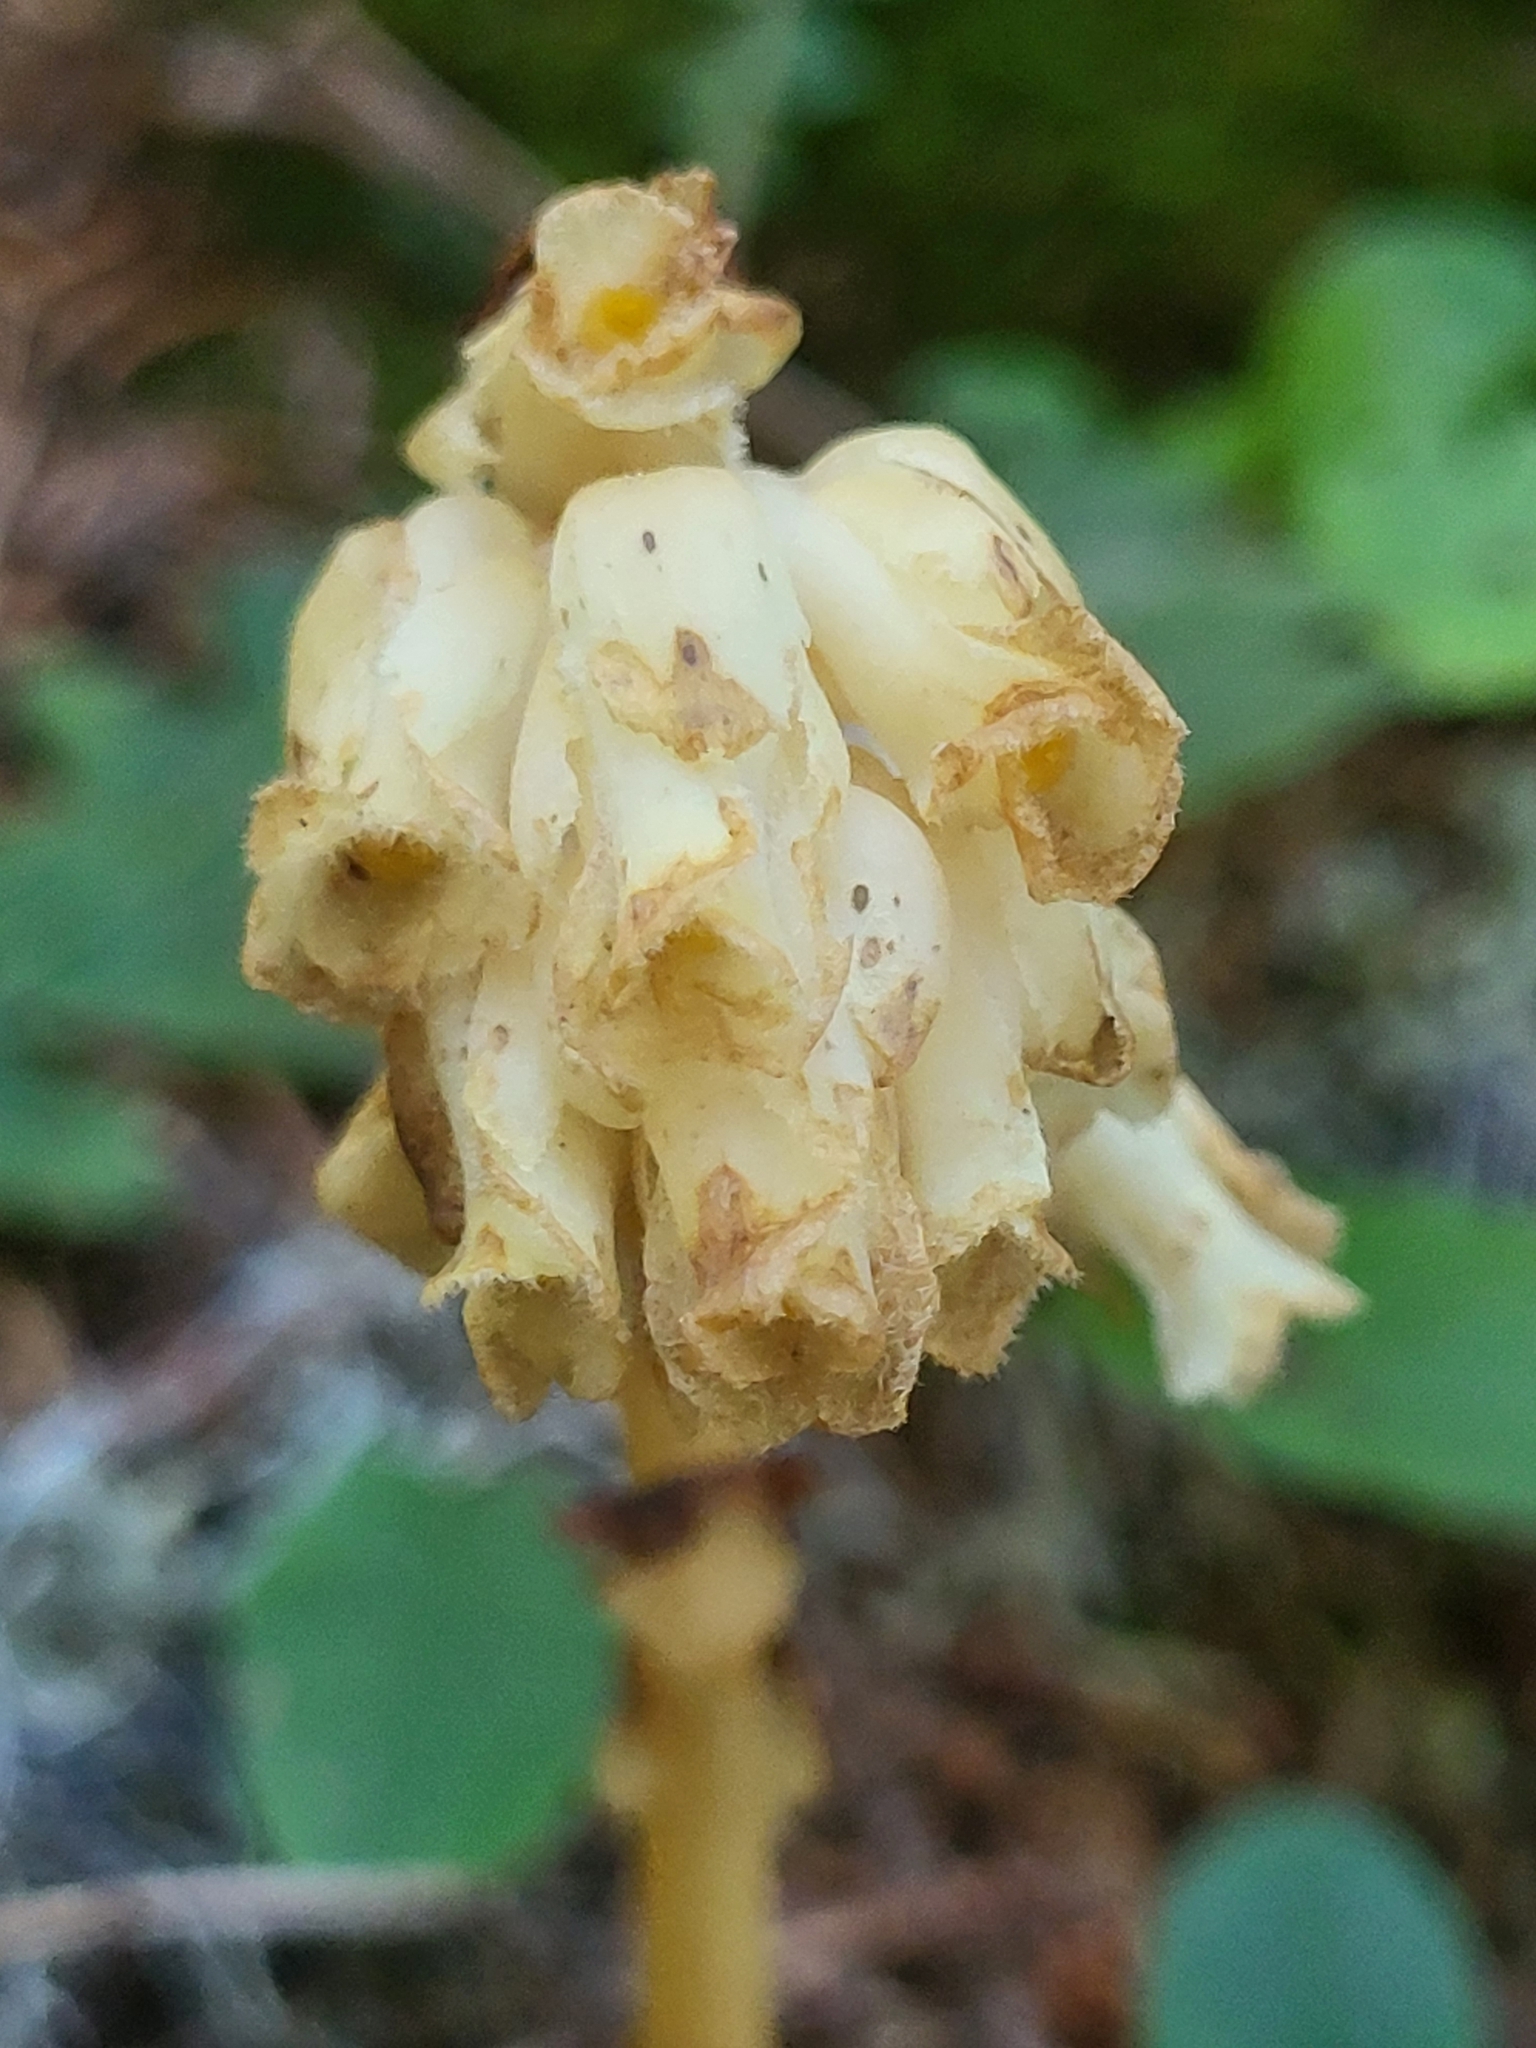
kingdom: Plantae
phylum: Tracheophyta
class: Magnoliopsida
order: Ericales
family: Ericaceae
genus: Hypopitys
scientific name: Hypopitys monotropa
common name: Yellow bird's-nest
